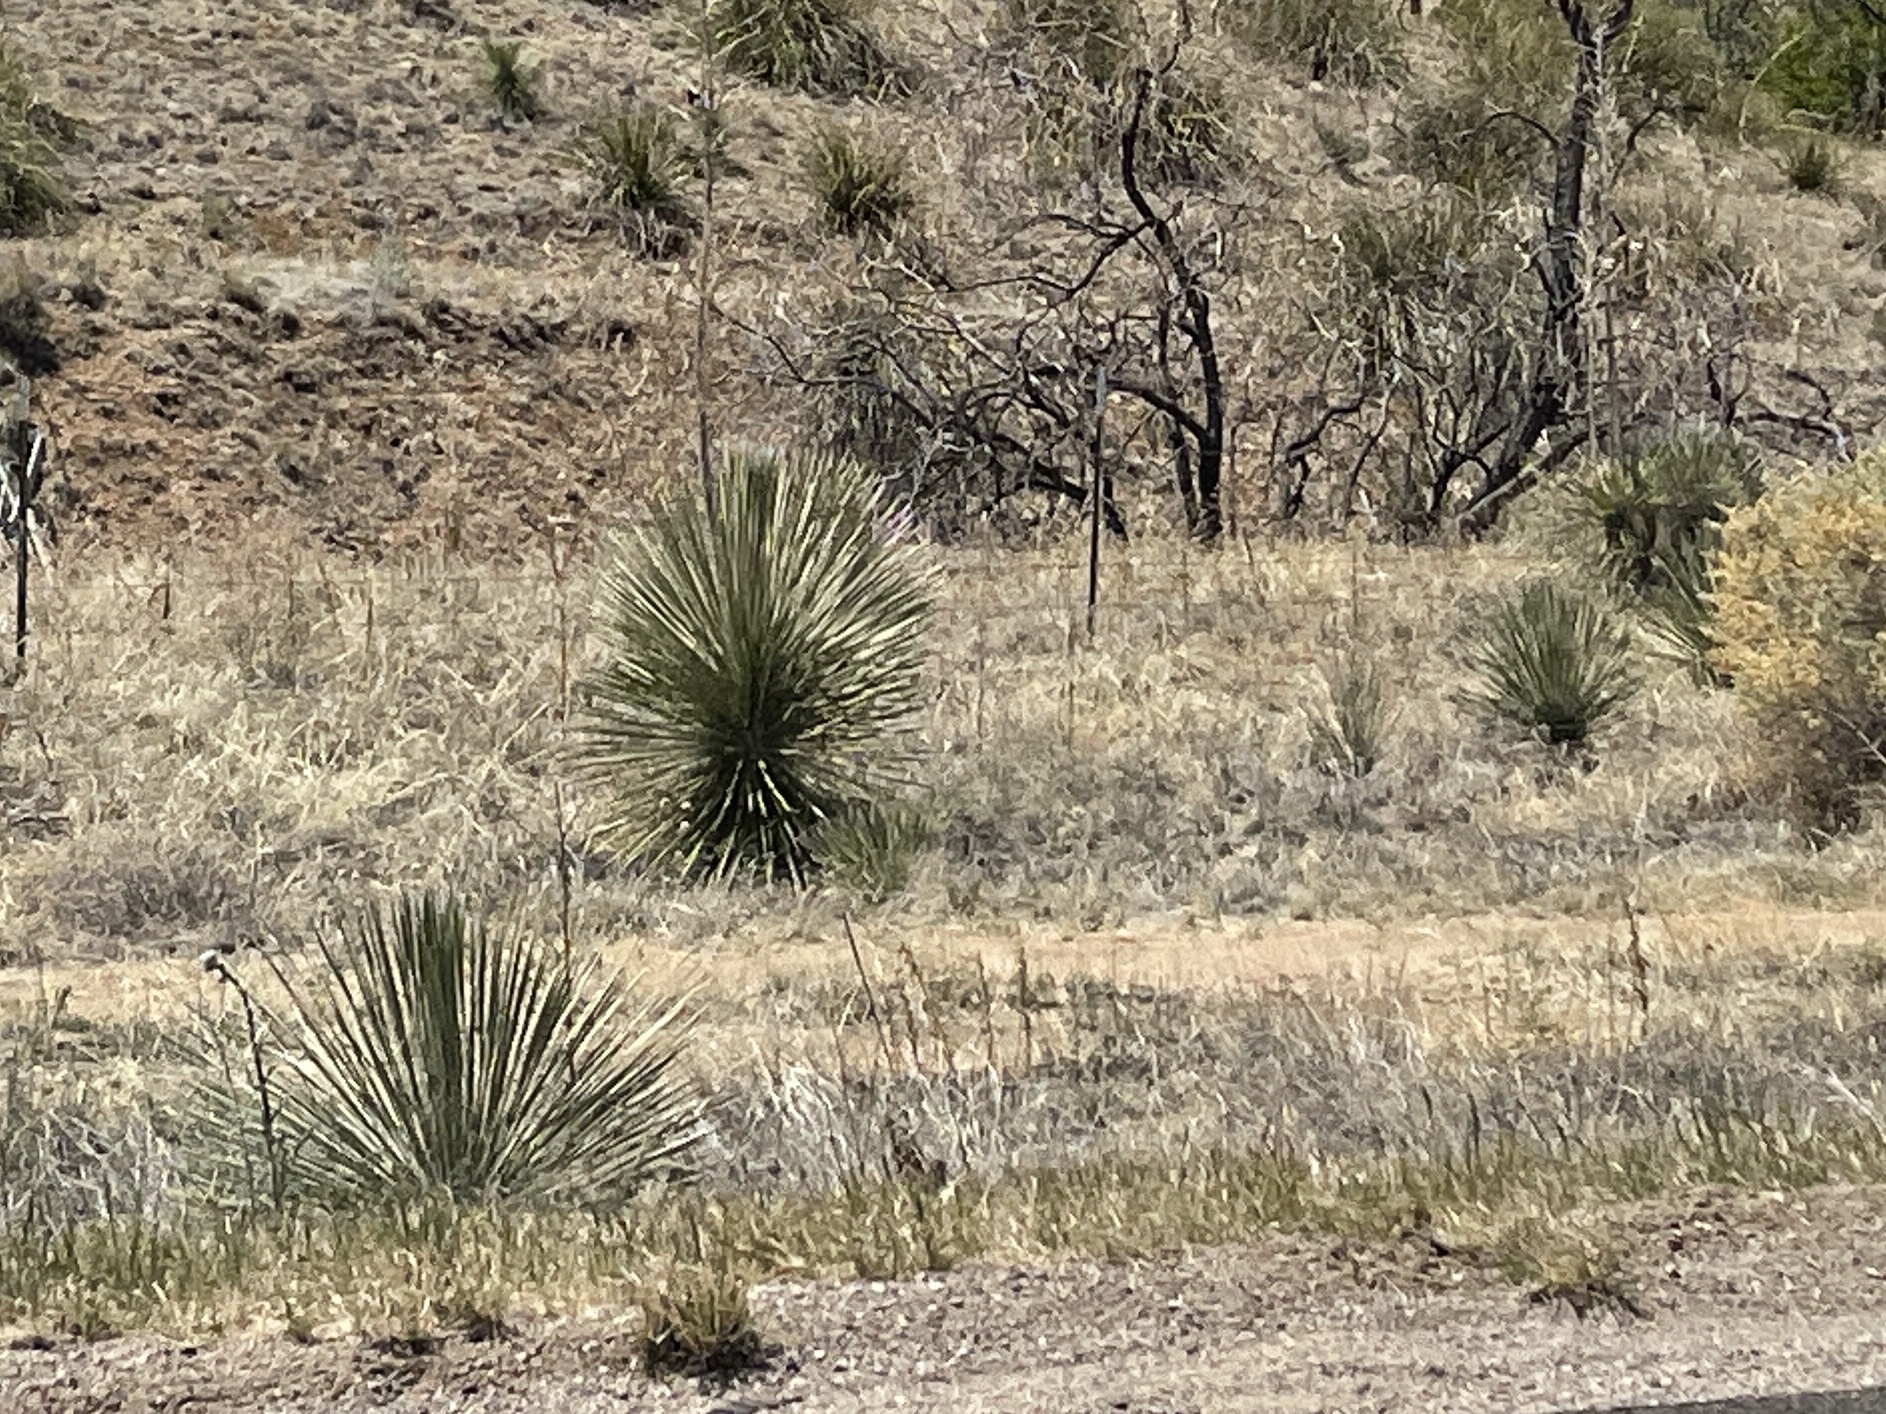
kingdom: Plantae
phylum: Tracheophyta
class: Liliopsida
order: Asparagales
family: Asparagaceae
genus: Yucca
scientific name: Yucca elata
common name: Palmella
